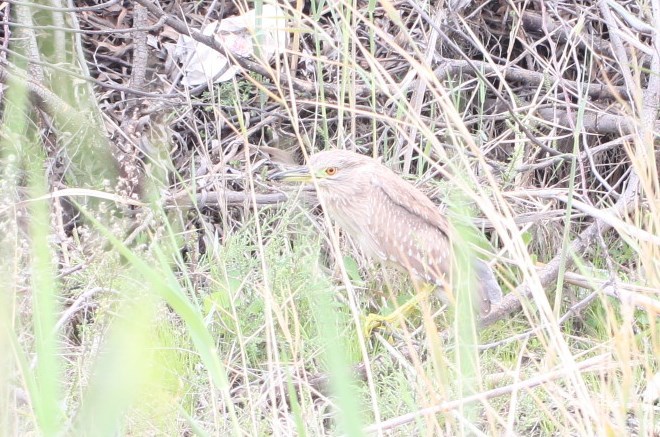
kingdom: Animalia
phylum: Chordata
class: Aves
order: Pelecaniformes
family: Ardeidae
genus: Nycticorax
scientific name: Nycticorax nycticorax
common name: Black-crowned night heron
